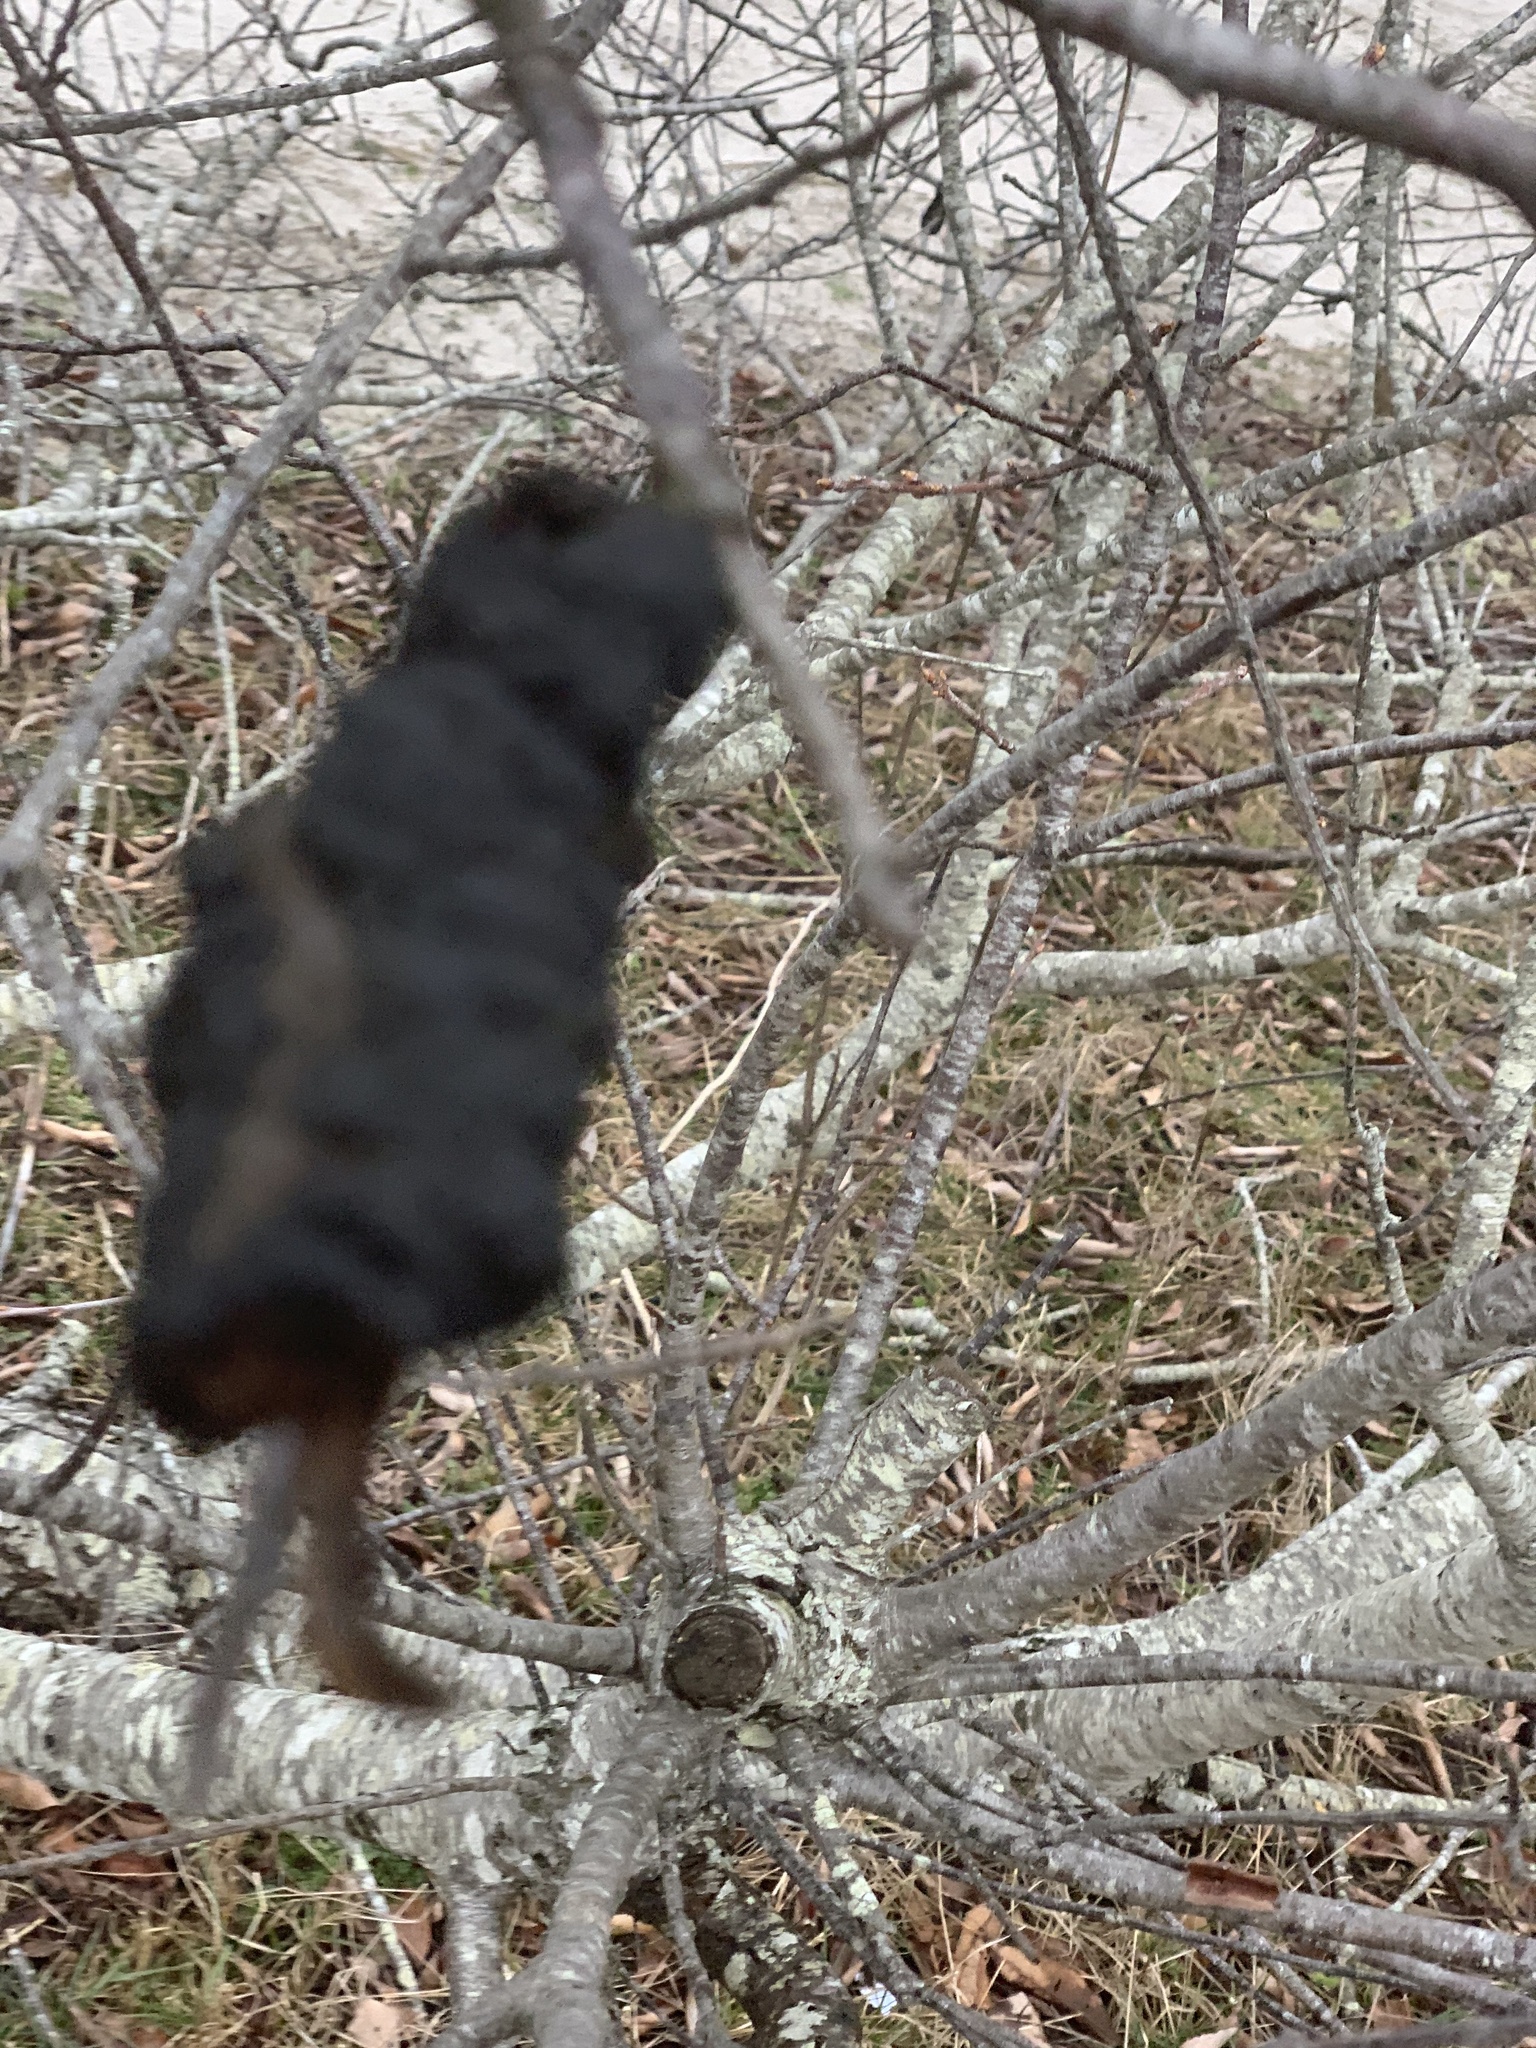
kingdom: Fungi
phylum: Ascomycota
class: Dothideomycetes
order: Venturiales
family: Venturiaceae
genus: Apiosporina
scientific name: Apiosporina morbosa
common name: Black knot
